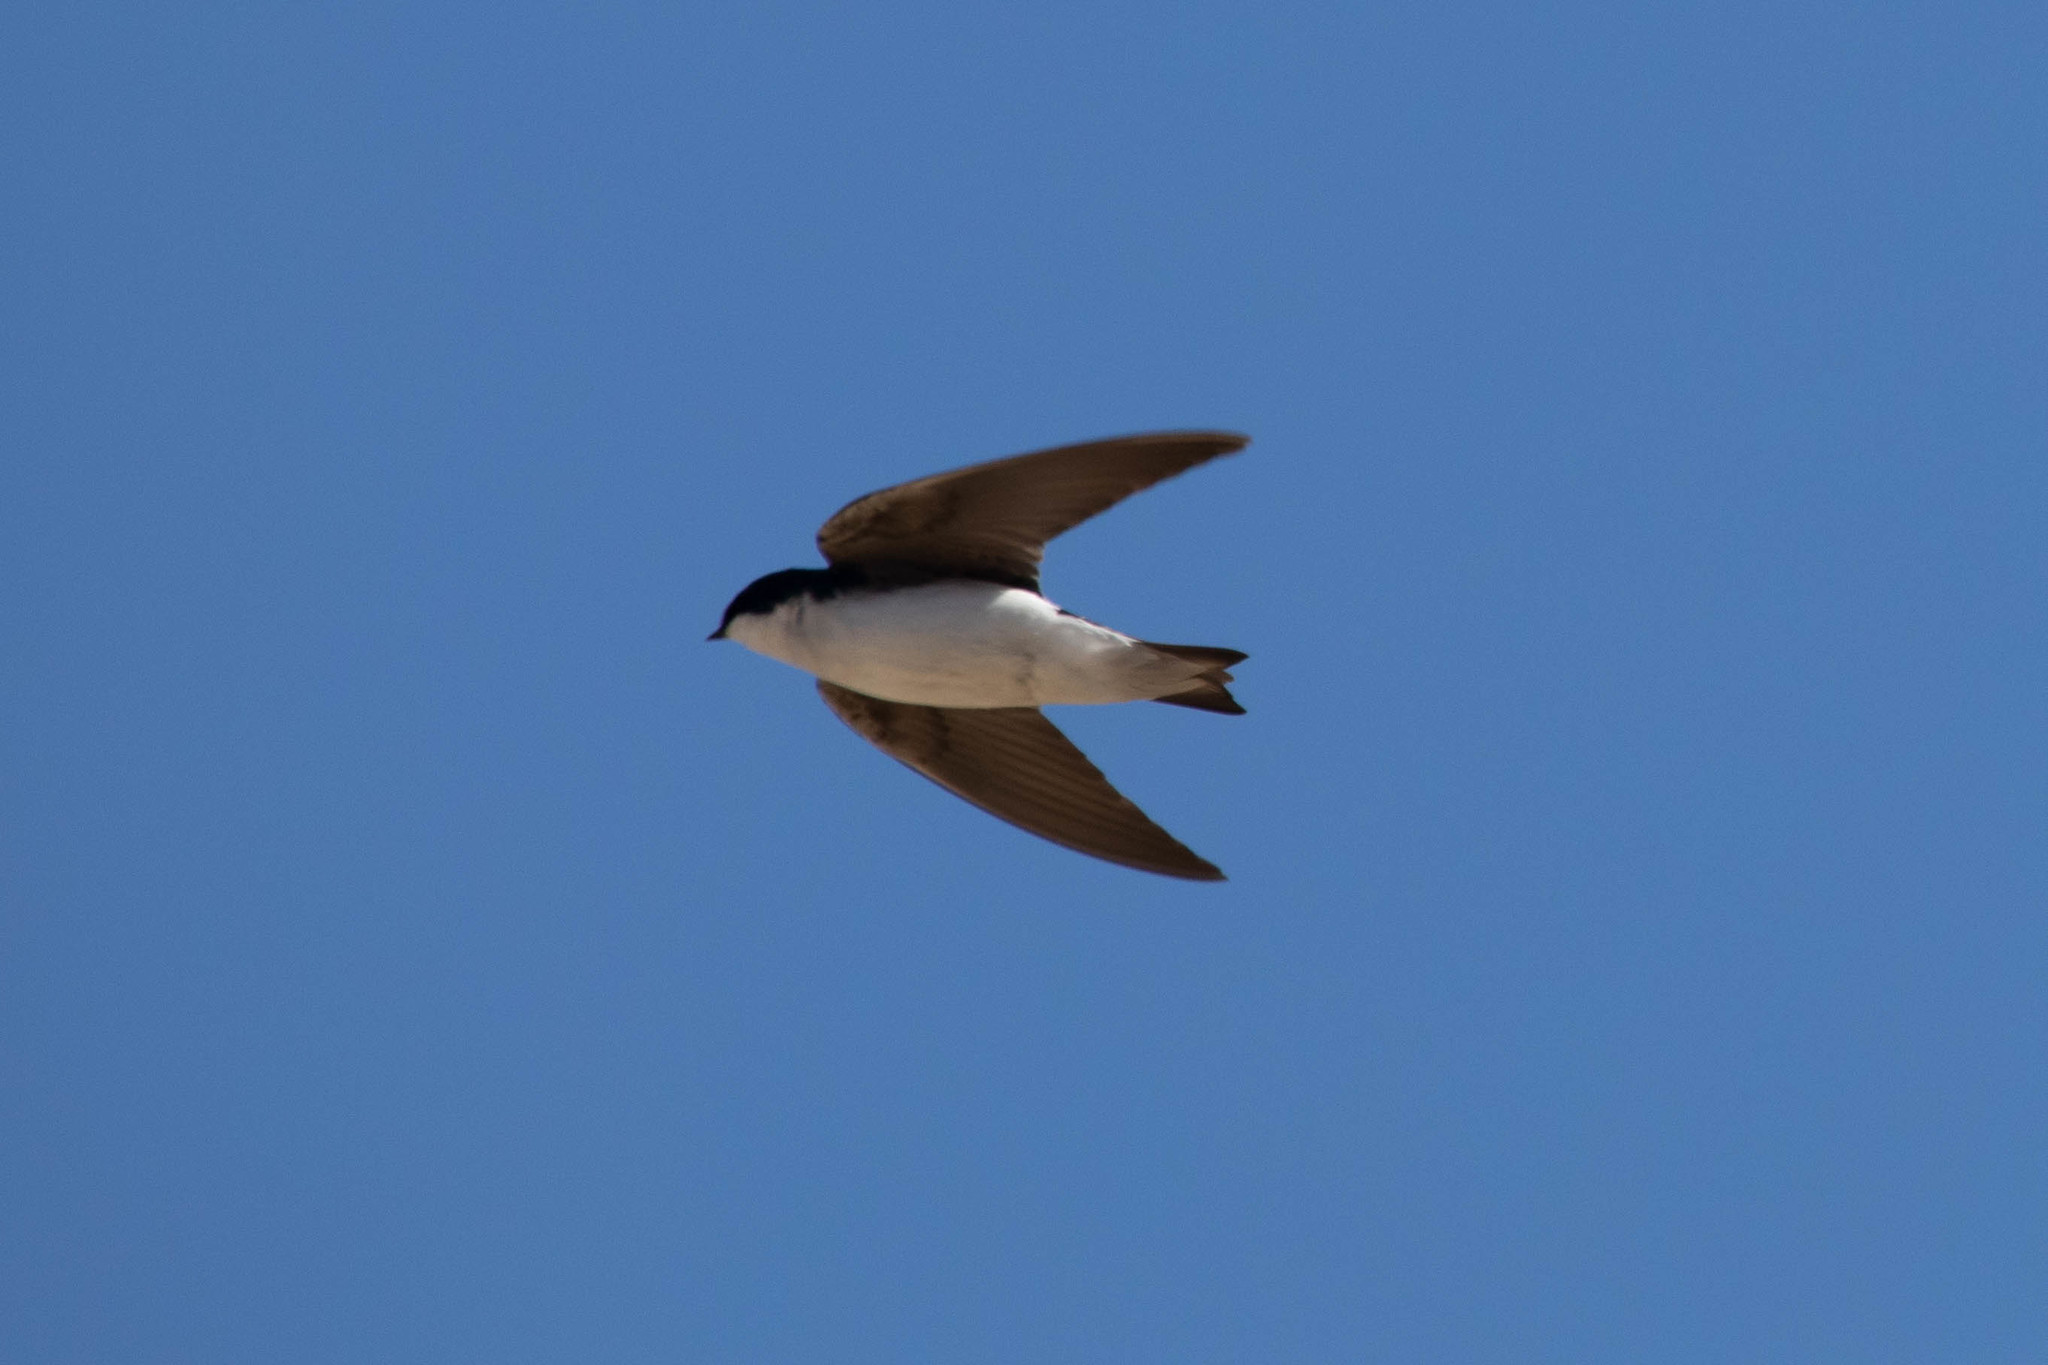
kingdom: Animalia
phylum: Chordata
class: Aves
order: Passeriformes
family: Hirundinidae
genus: Tachycineta
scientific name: Tachycineta bicolor
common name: Tree swallow
